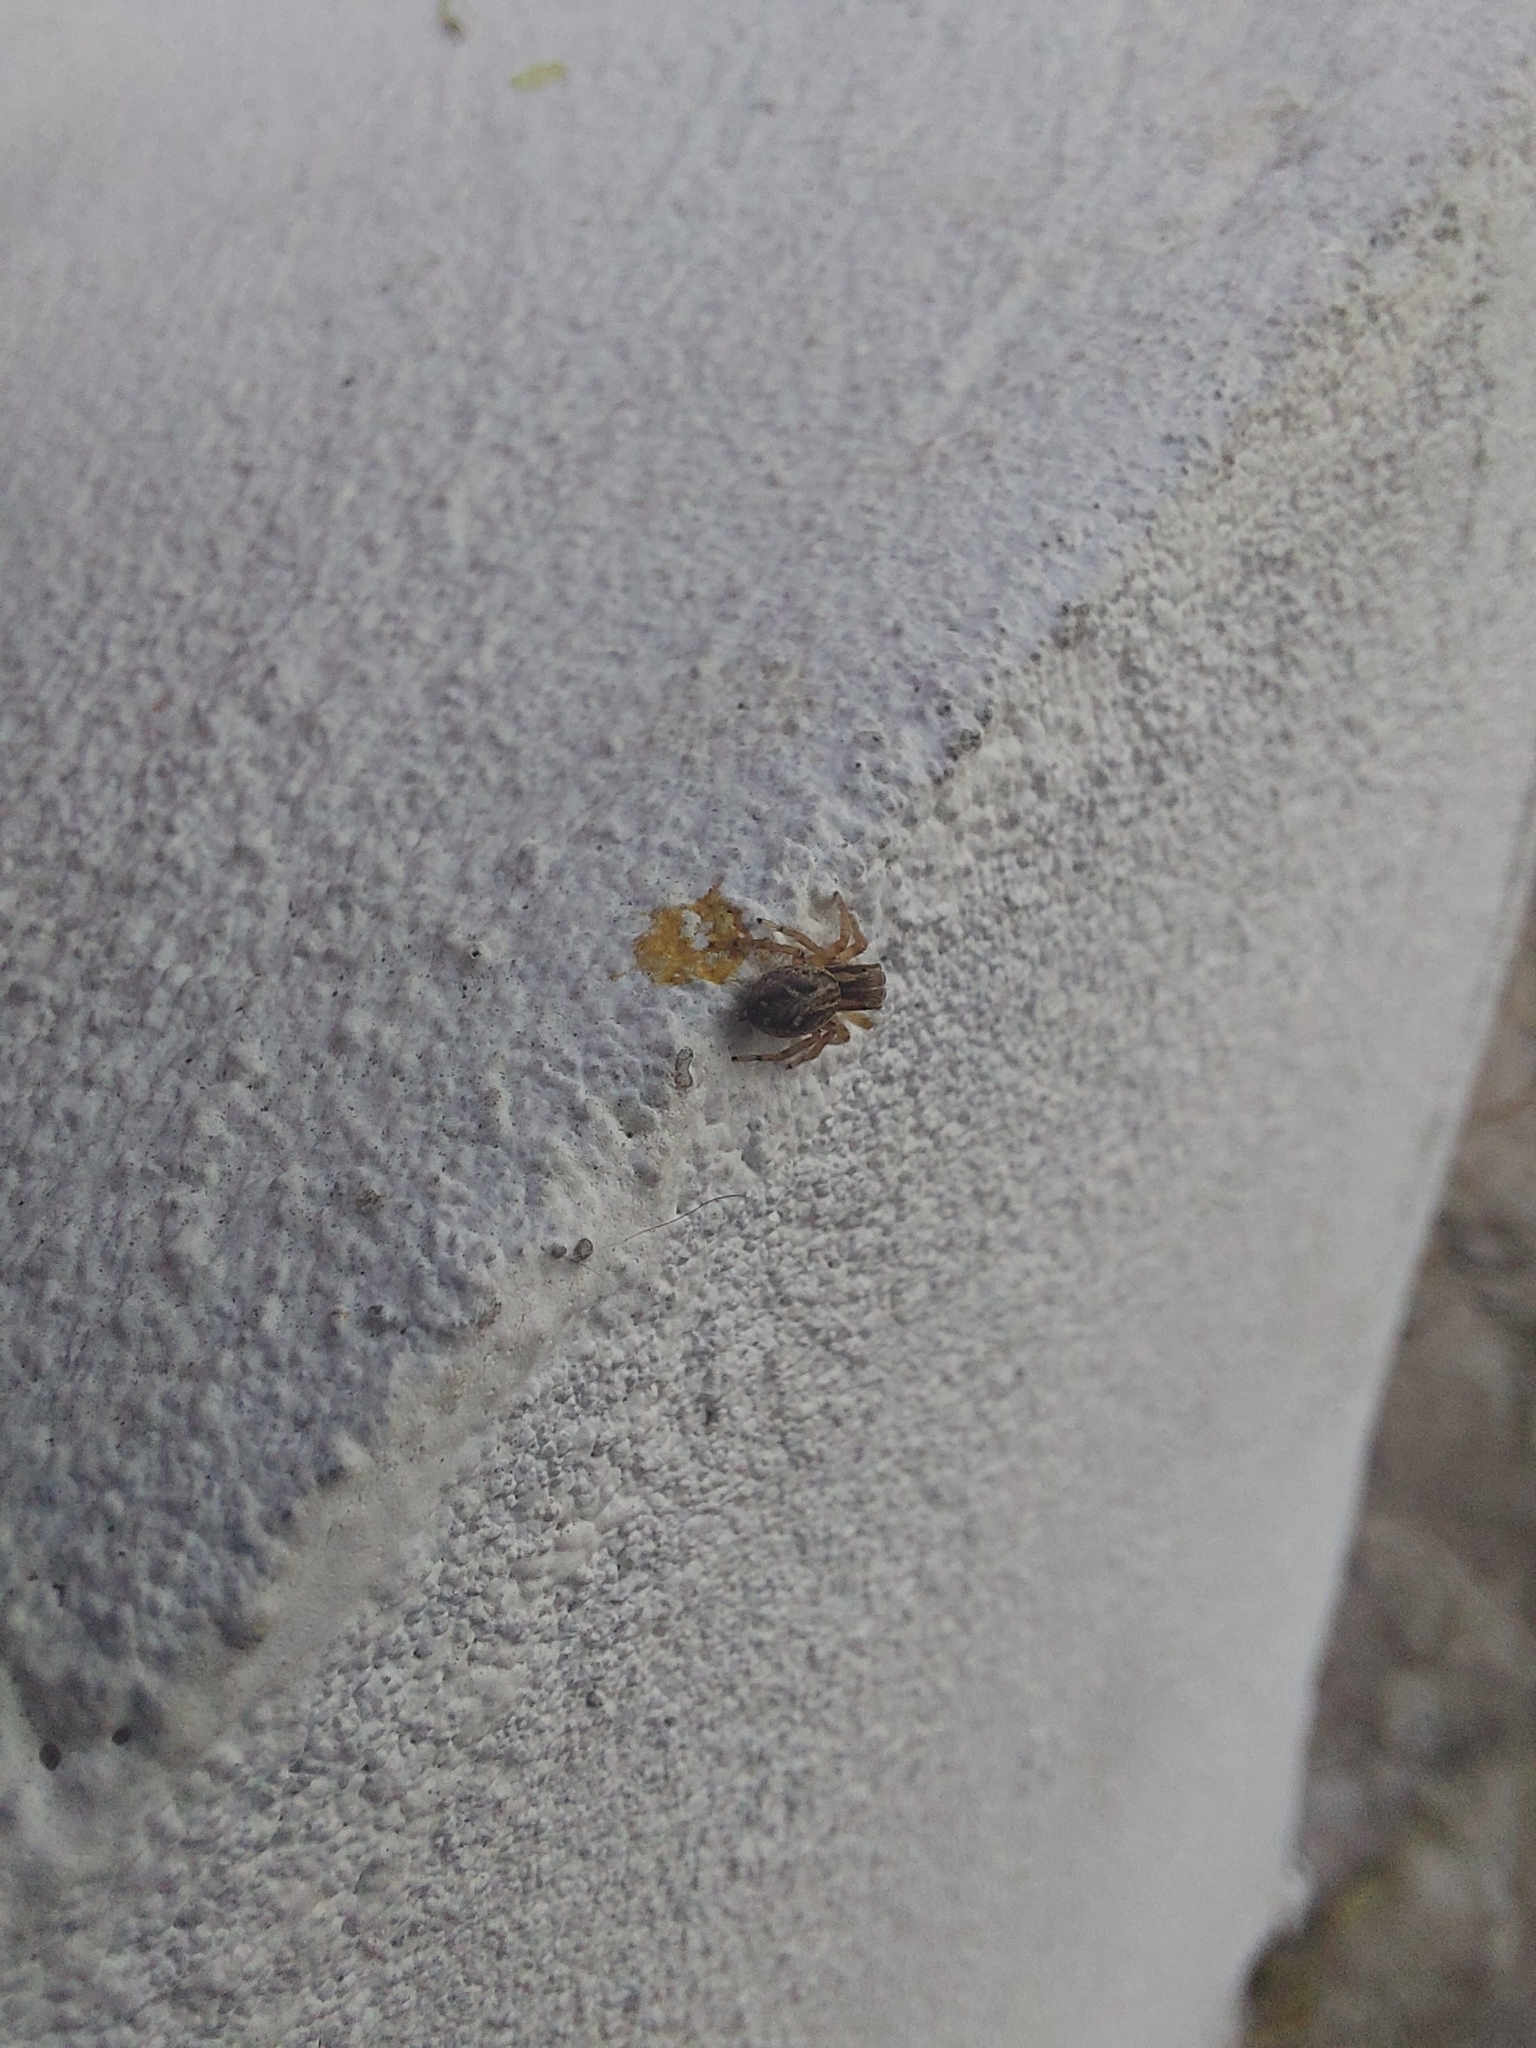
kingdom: Animalia
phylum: Arthropoda
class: Arachnida
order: Araneae
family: Salticidae
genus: Aphirape
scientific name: Aphirape
